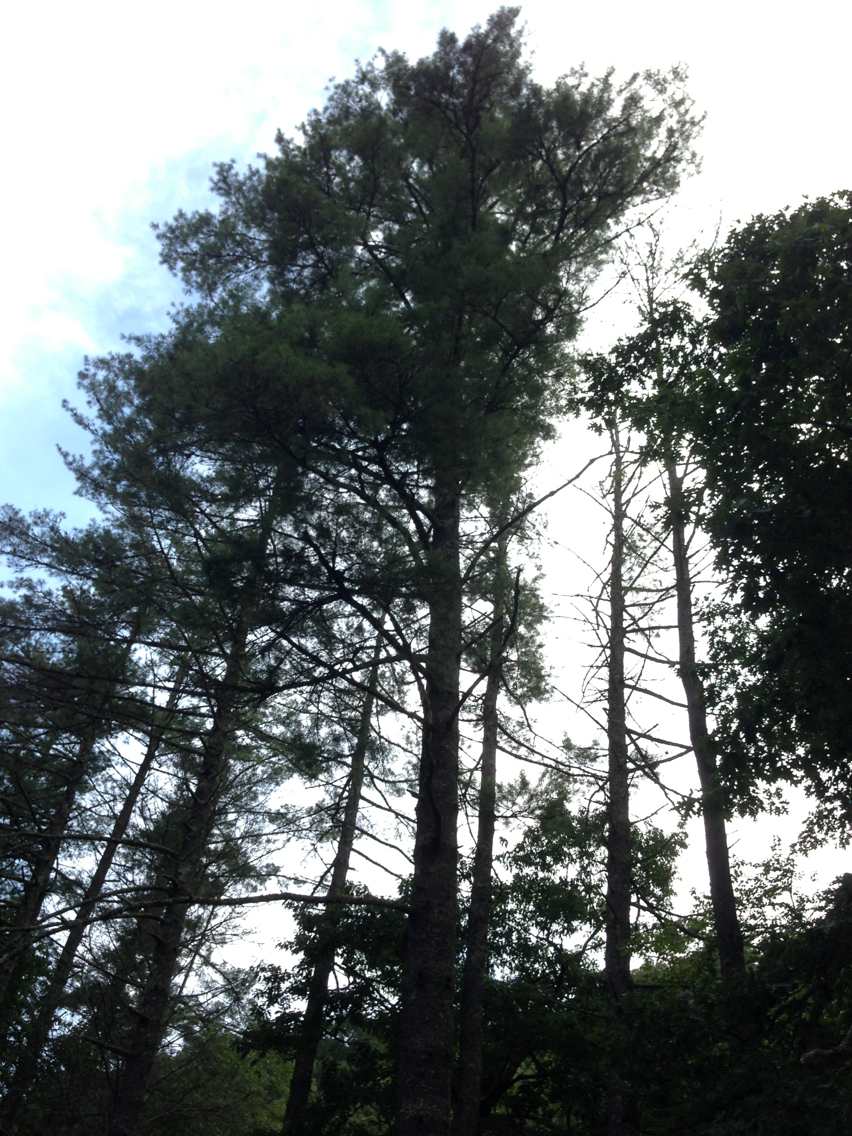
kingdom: Plantae
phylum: Tracheophyta
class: Pinopsida
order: Pinales
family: Pinaceae
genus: Pinus
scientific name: Pinus strobus
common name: Weymouth pine
